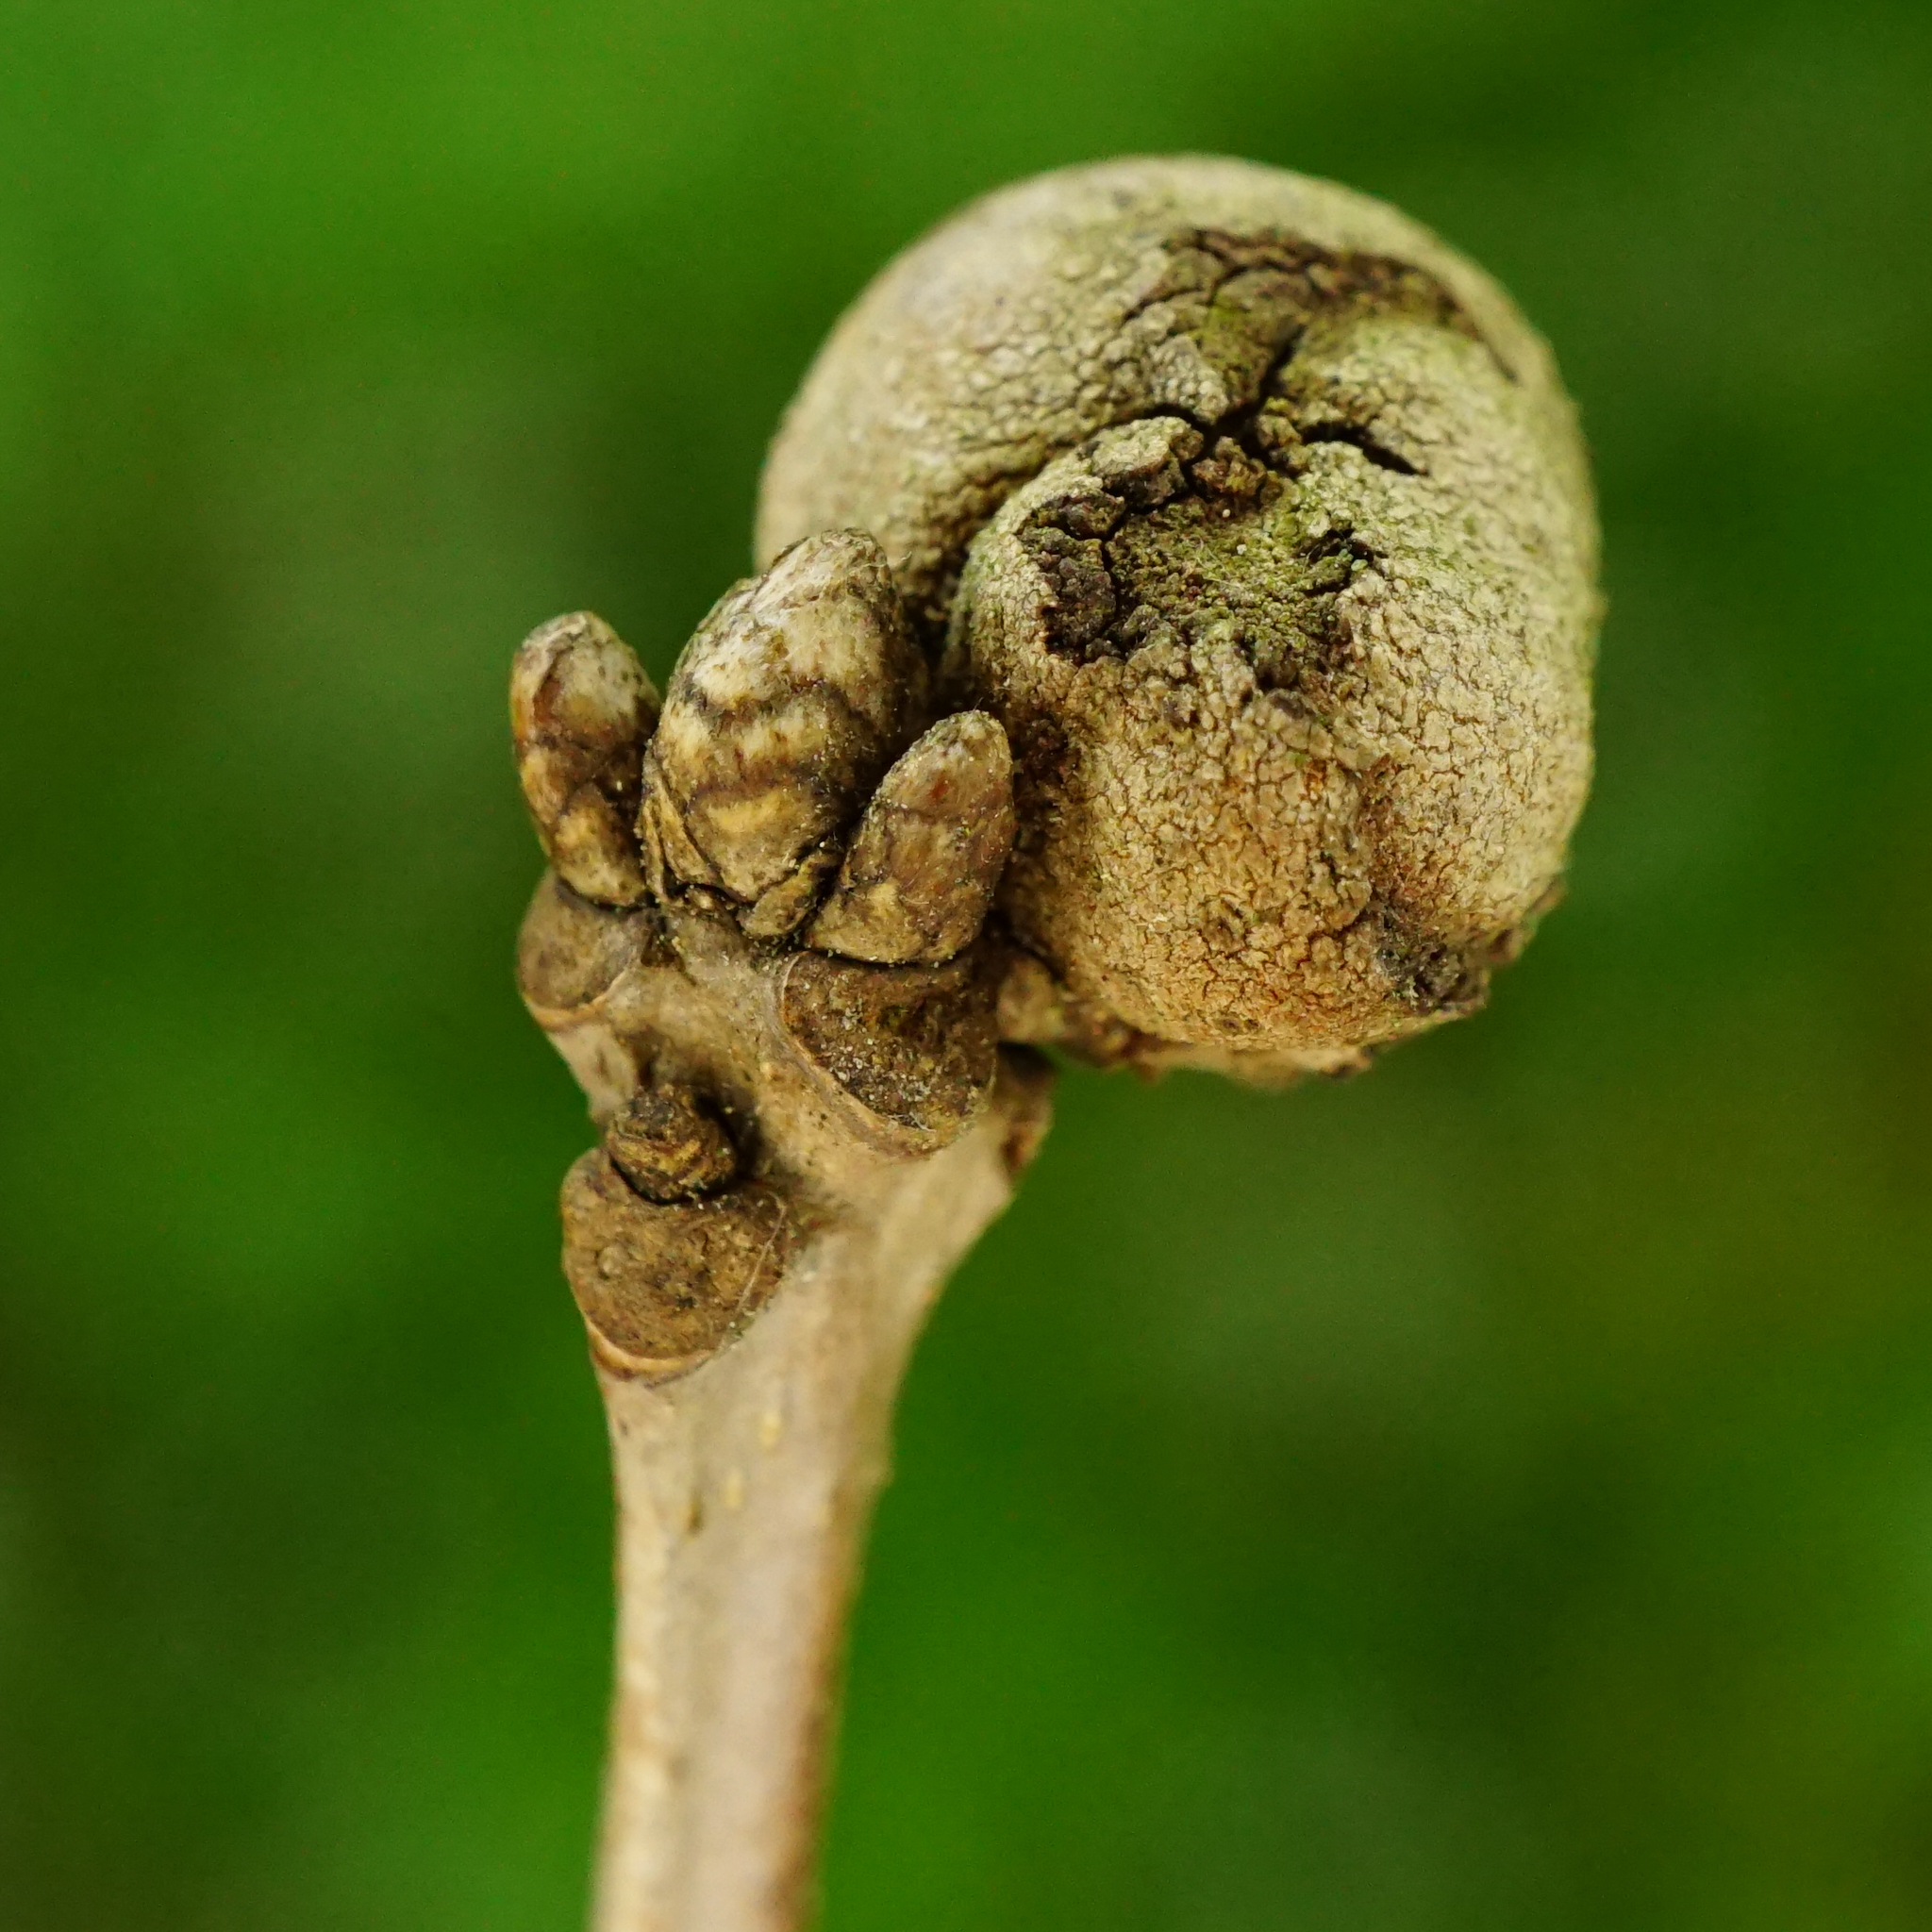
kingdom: Animalia
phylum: Arthropoda
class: Insecta
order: Hymenoptera
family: Cynipidae
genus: Andricus
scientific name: Andricus lignicolus
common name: Cola-nut gall
